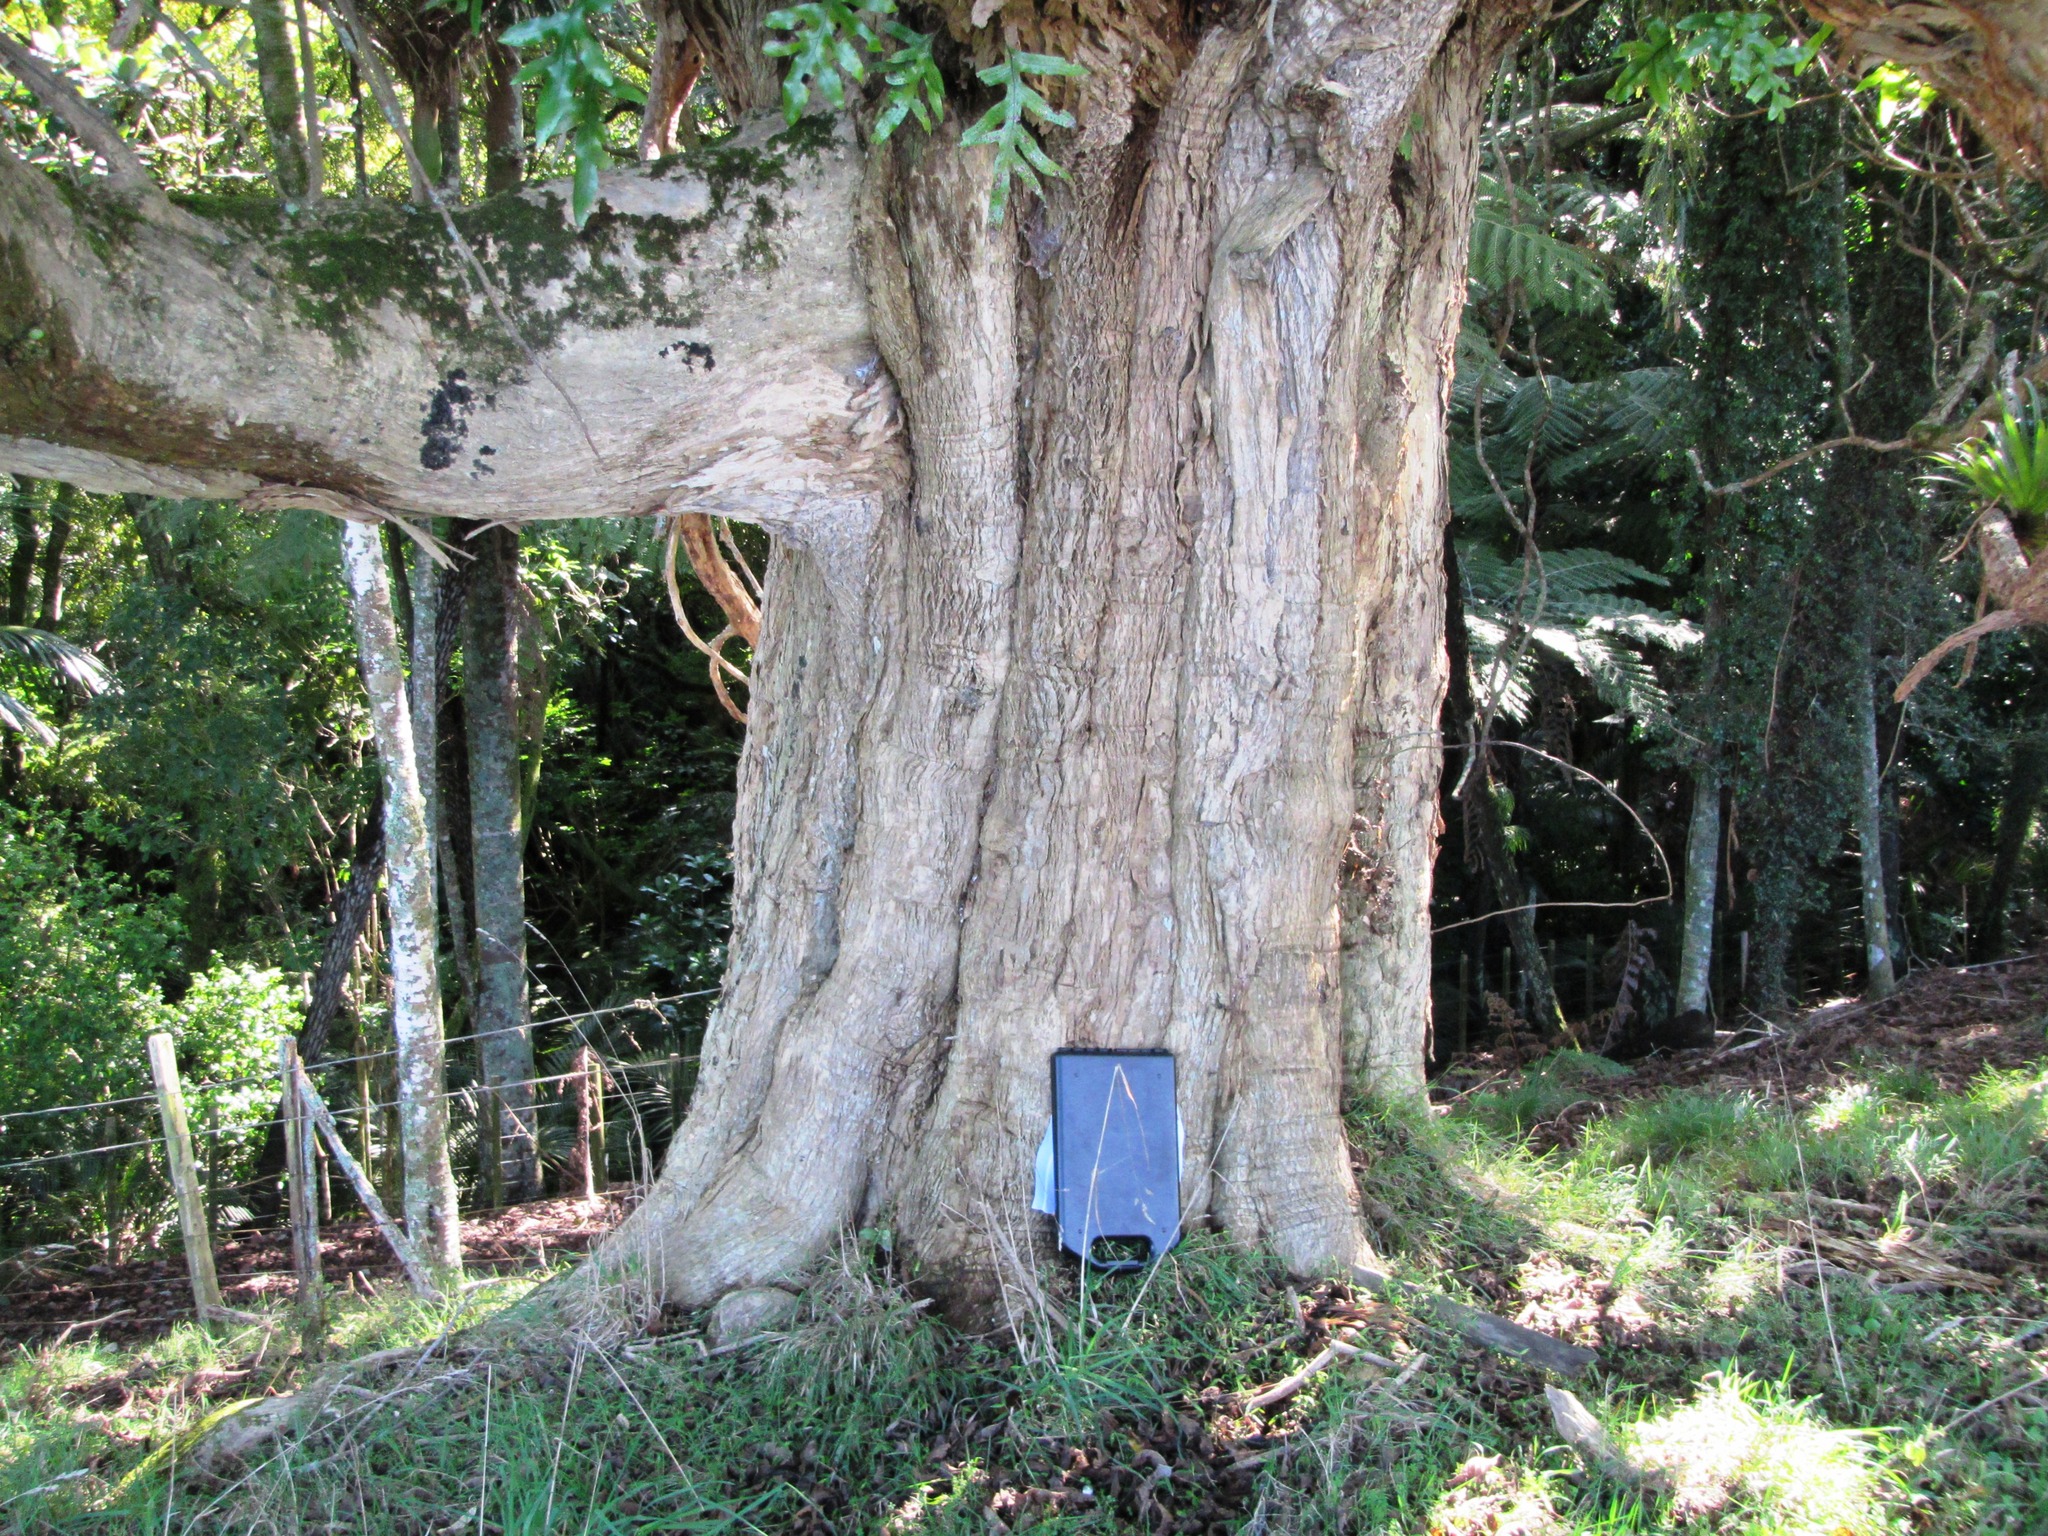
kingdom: Plantae
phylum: Tracheophyta
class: Magnoliopsida
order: Lamiales
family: Lamiaceae
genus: Vitex
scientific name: Vitex lucens
